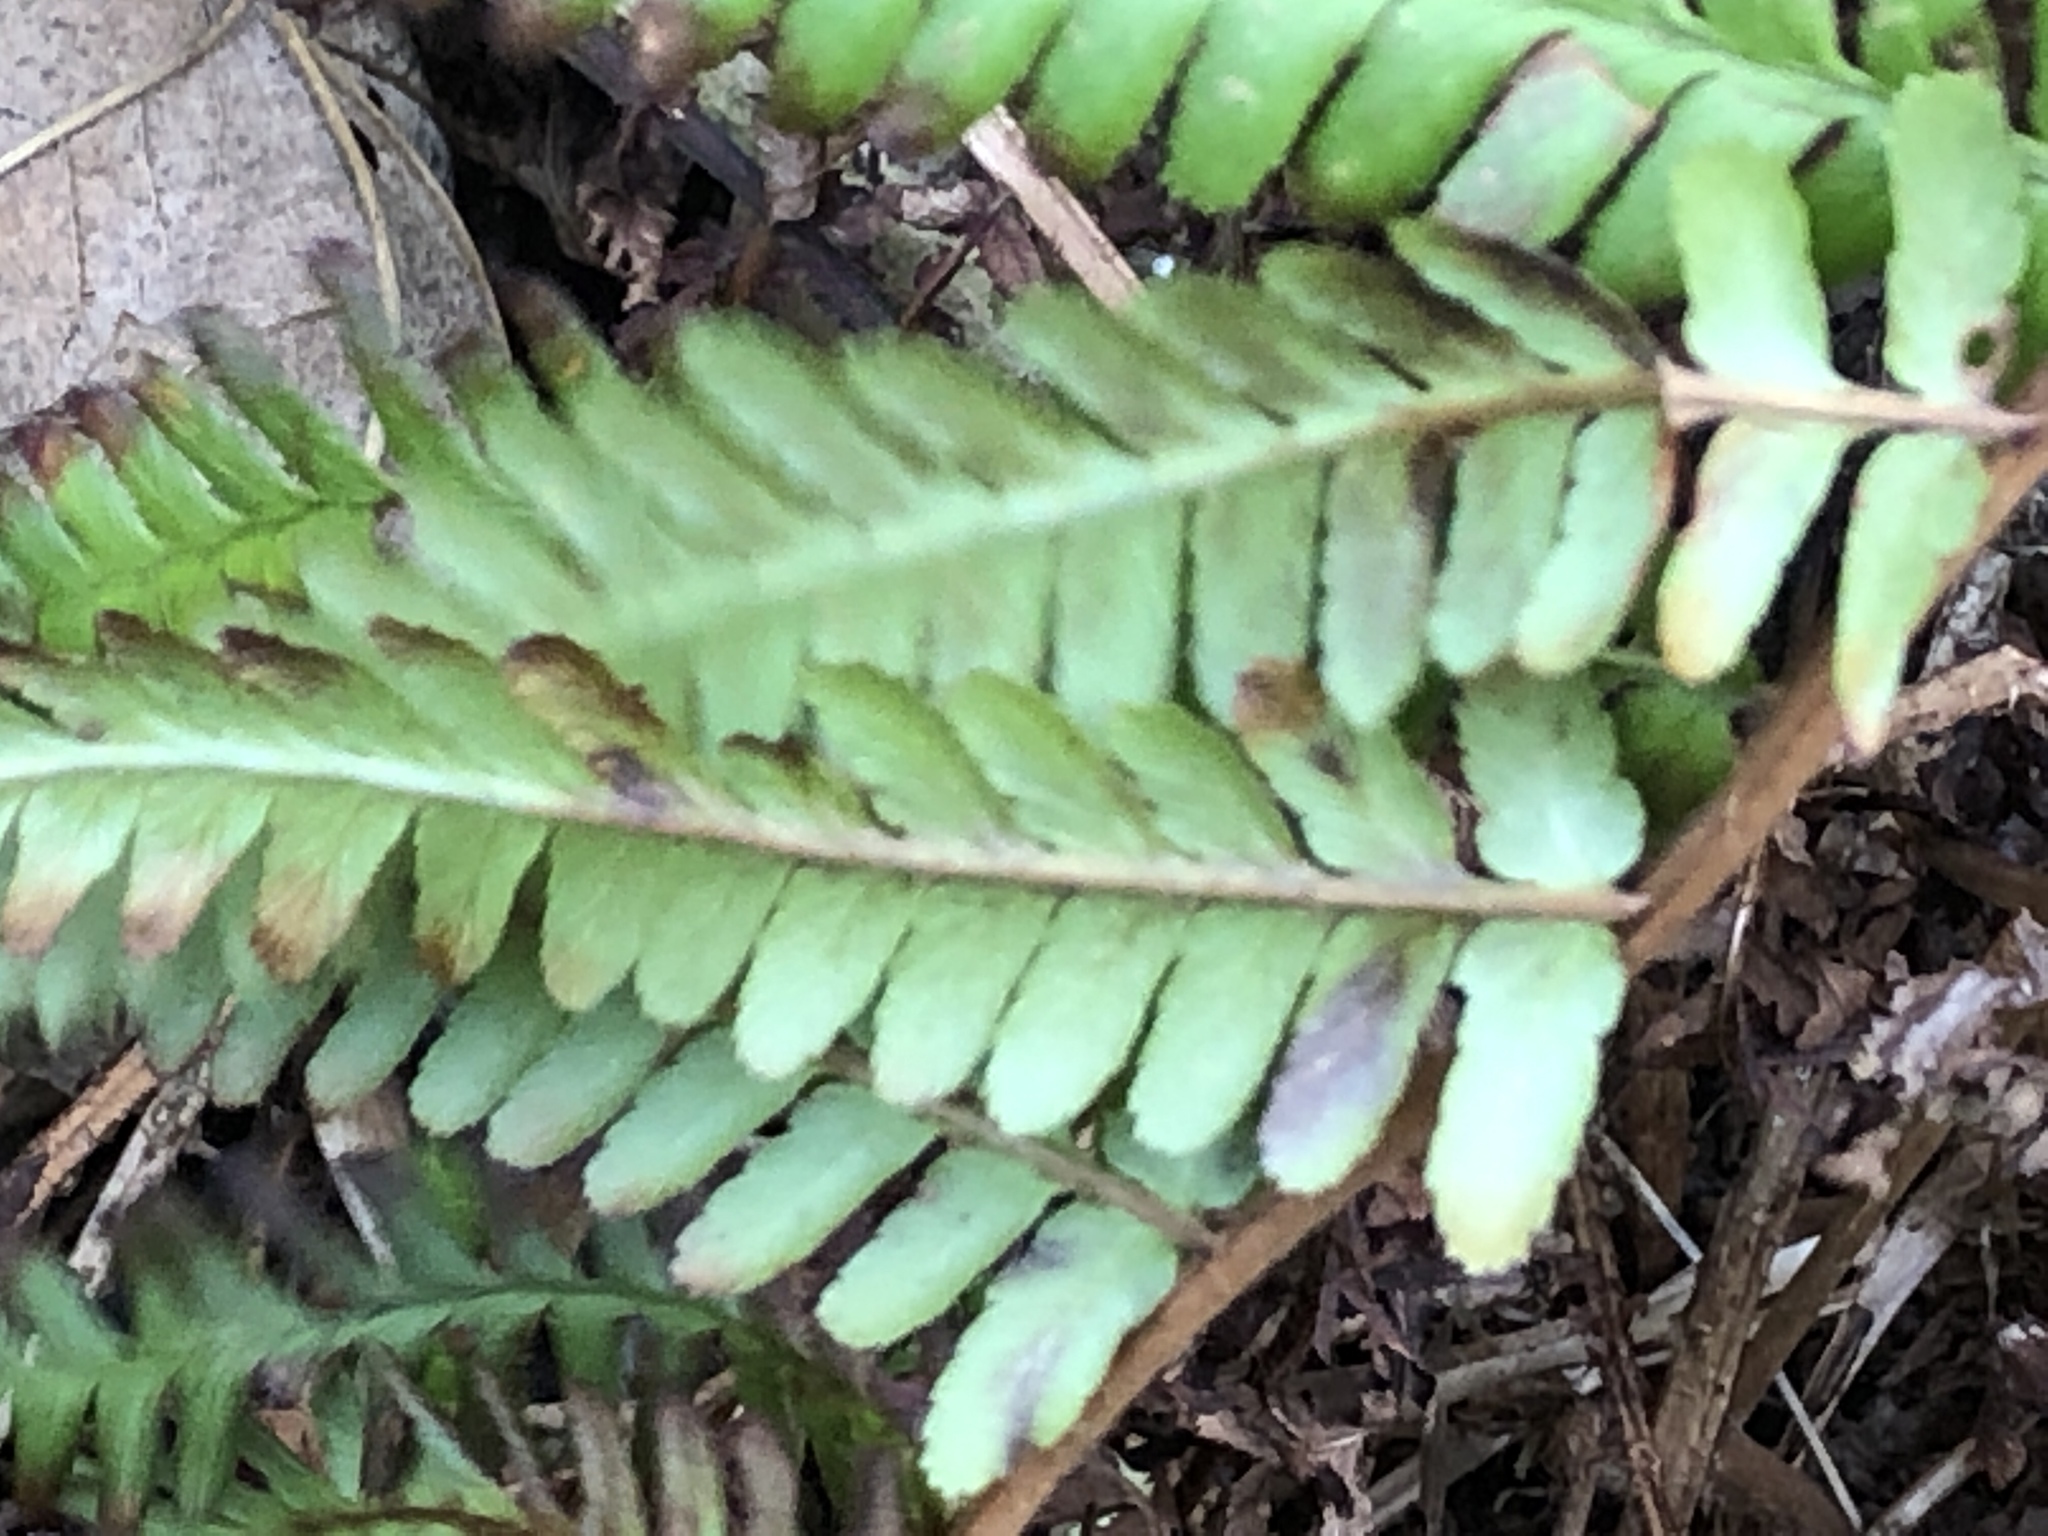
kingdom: Plantae
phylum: Tracheophyta
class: Polypodiopsida
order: Polypodiales
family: Dryopteridaceae
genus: Dryopteris
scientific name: Dryopteris filix-mas
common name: Male fern
